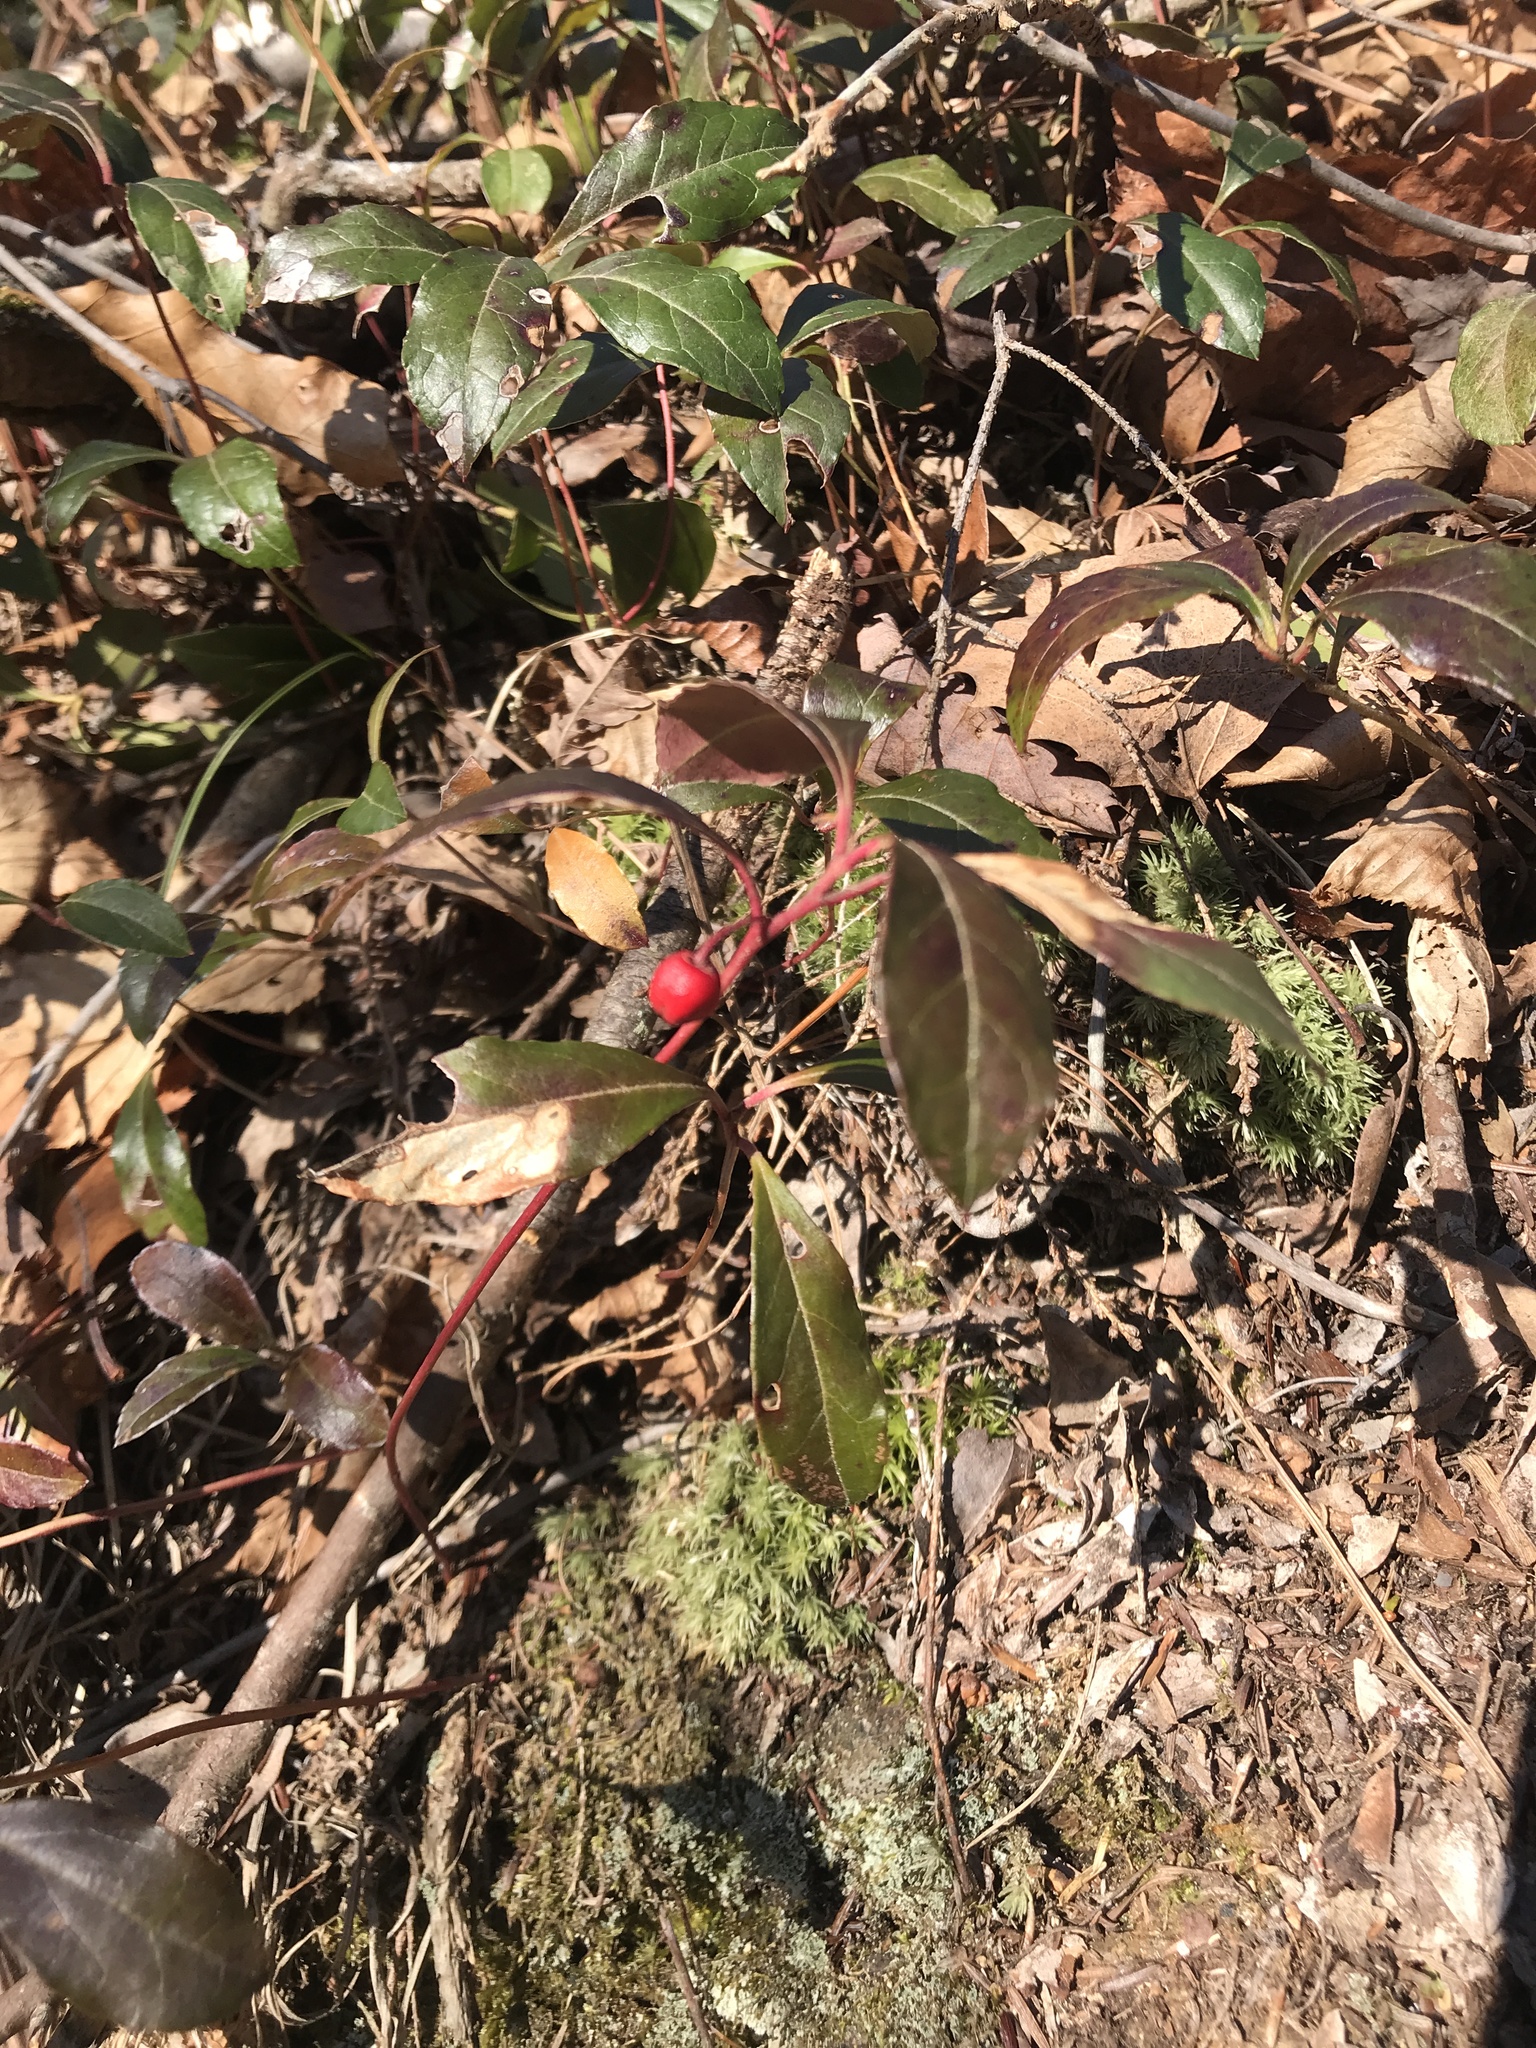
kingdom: Plantae
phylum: Tracheophyta
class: Magnoliopsida
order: Ericales
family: Ericaceae
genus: Gaultheria
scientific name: Gaultheria procumbens
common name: Checkerberry
